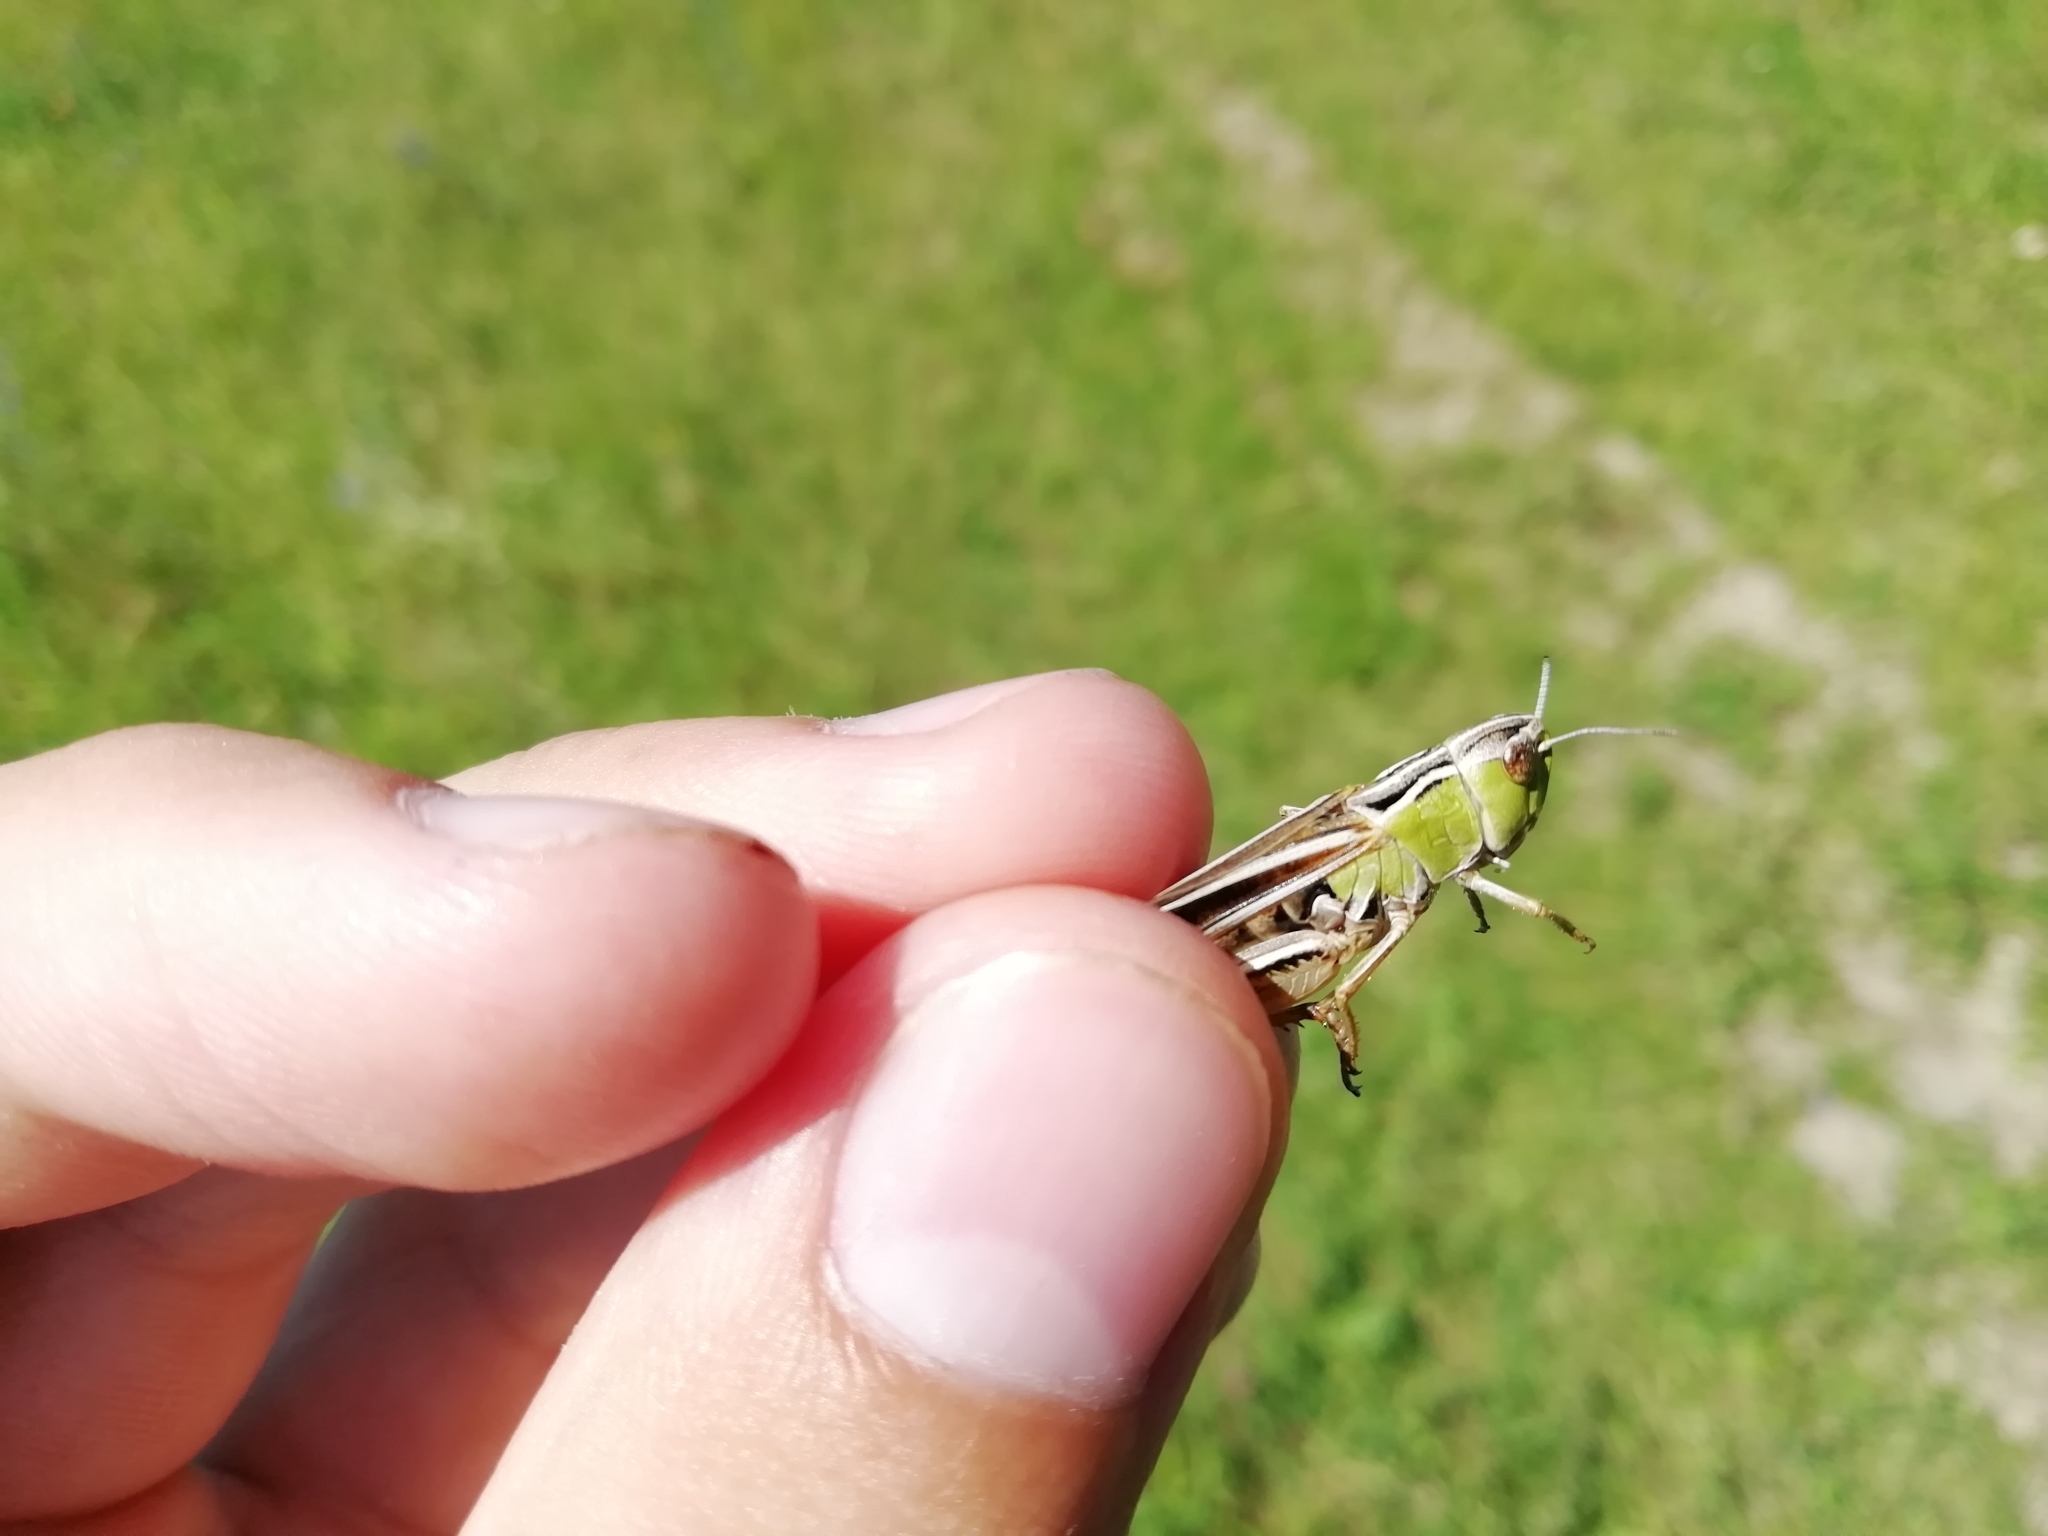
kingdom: Animalia
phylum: Arthropoda
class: Insecta
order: Orthoptera
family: Acrididae
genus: Stenobothrus
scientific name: Stenobothrus lineatus
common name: Stripe-winged grasshopper
